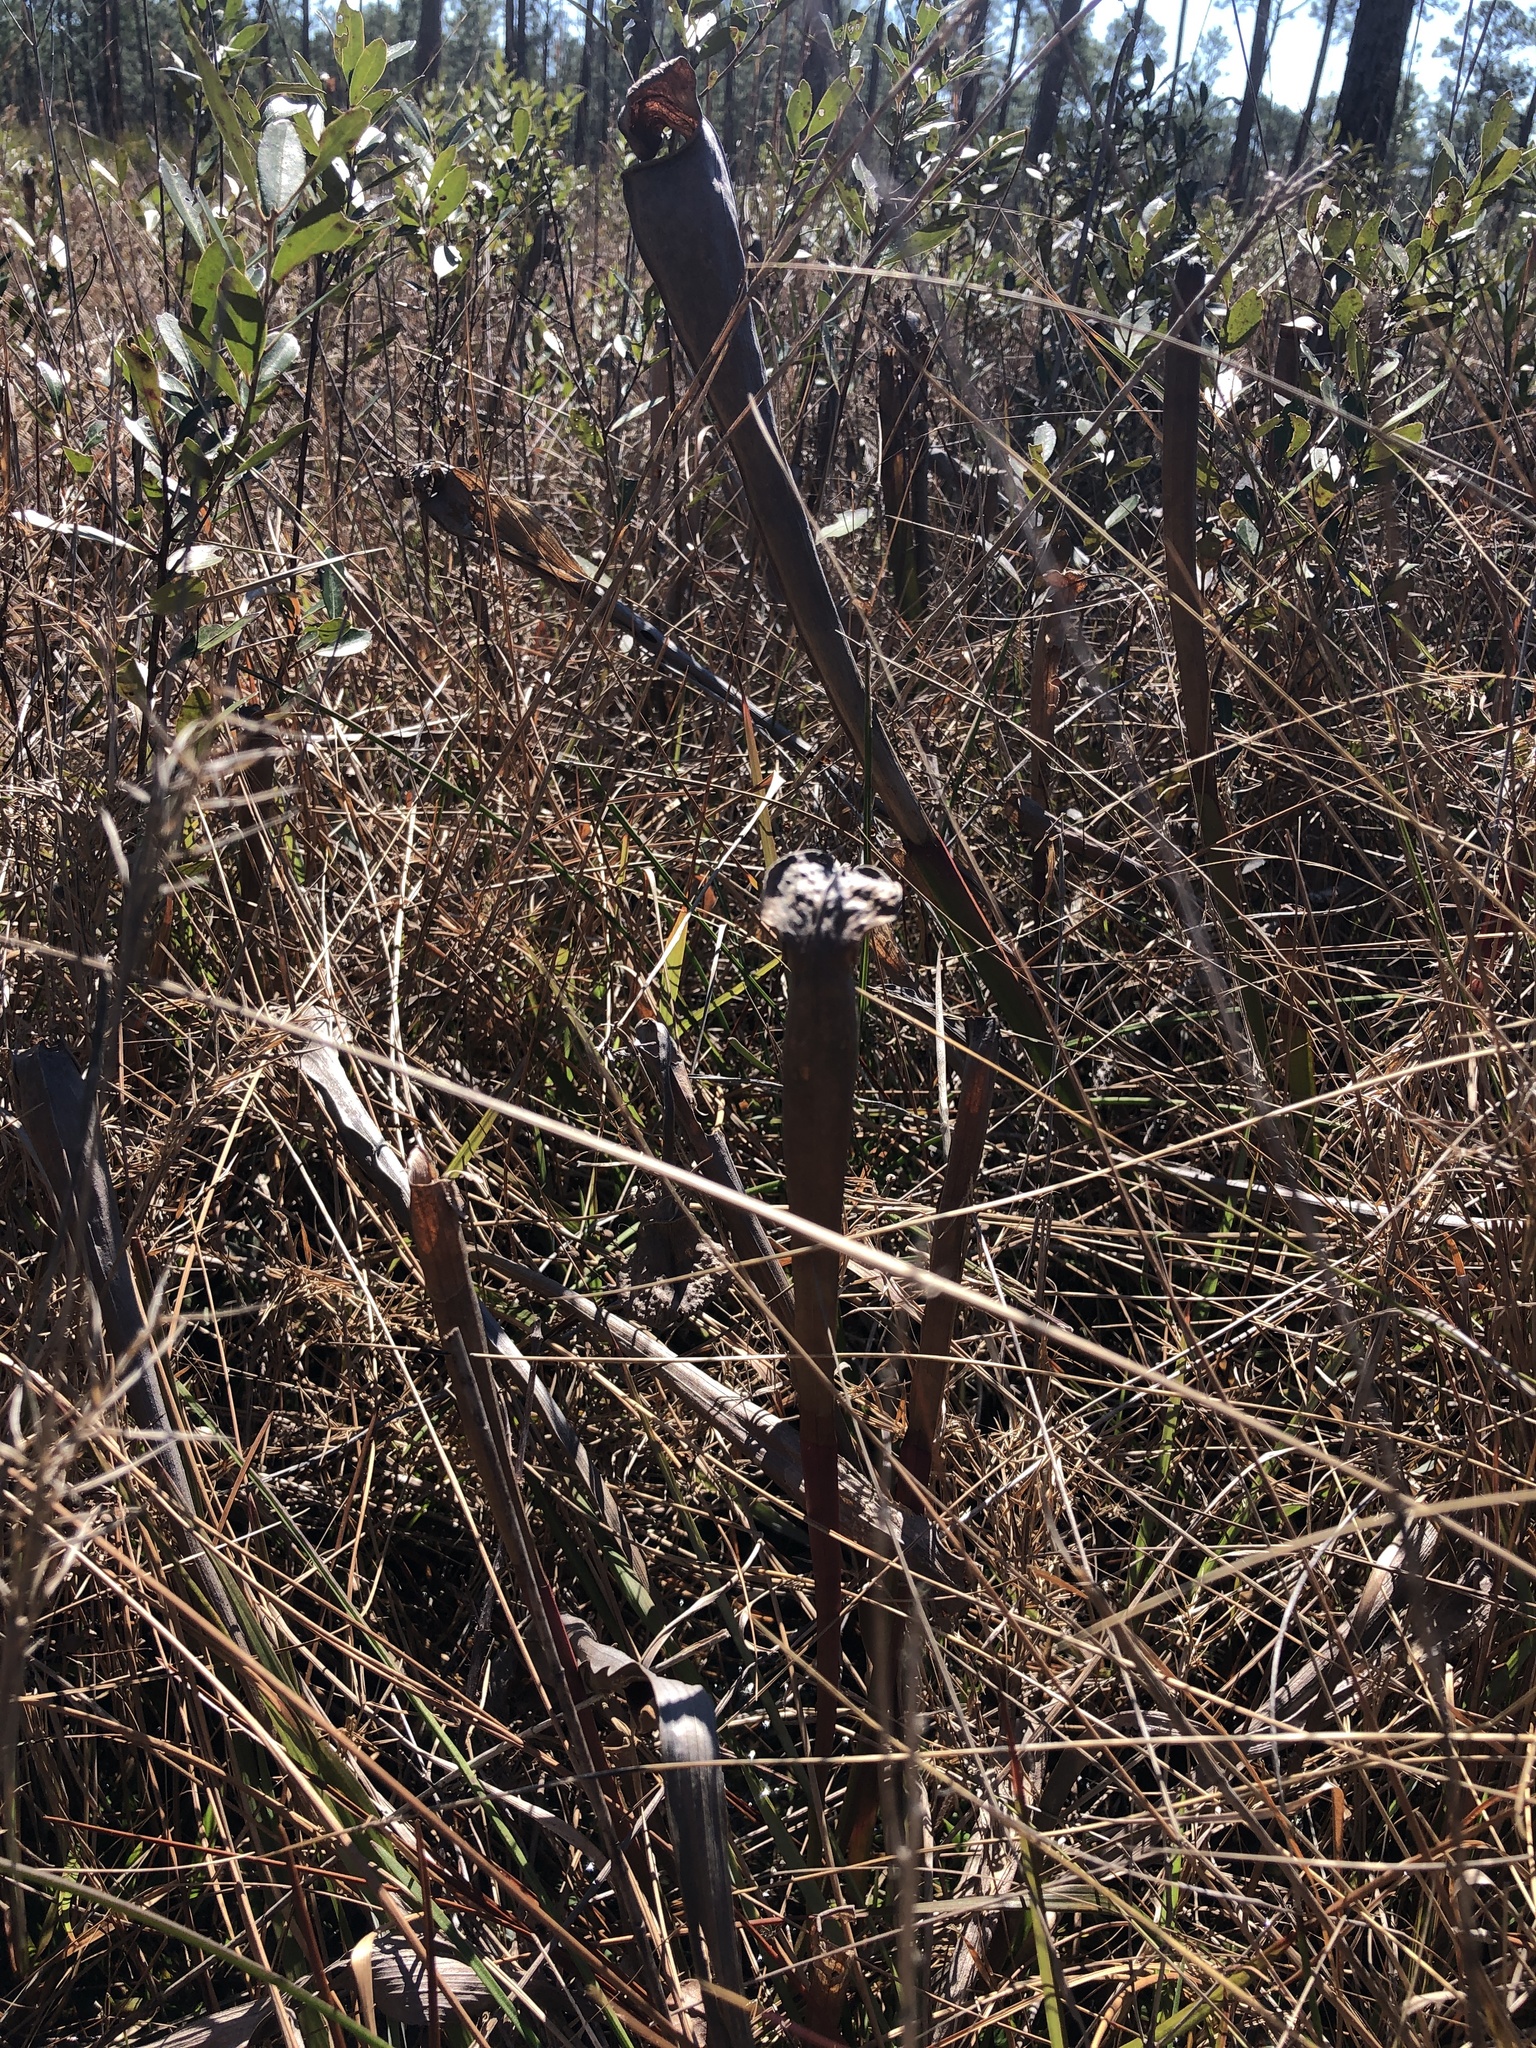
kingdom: Plantae
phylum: Tracheophyta
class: Magnoliopsida
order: Ericales
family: Sarraceniaceae
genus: Sarracenia
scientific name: Sarracenia alata
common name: Yellow trumpets
